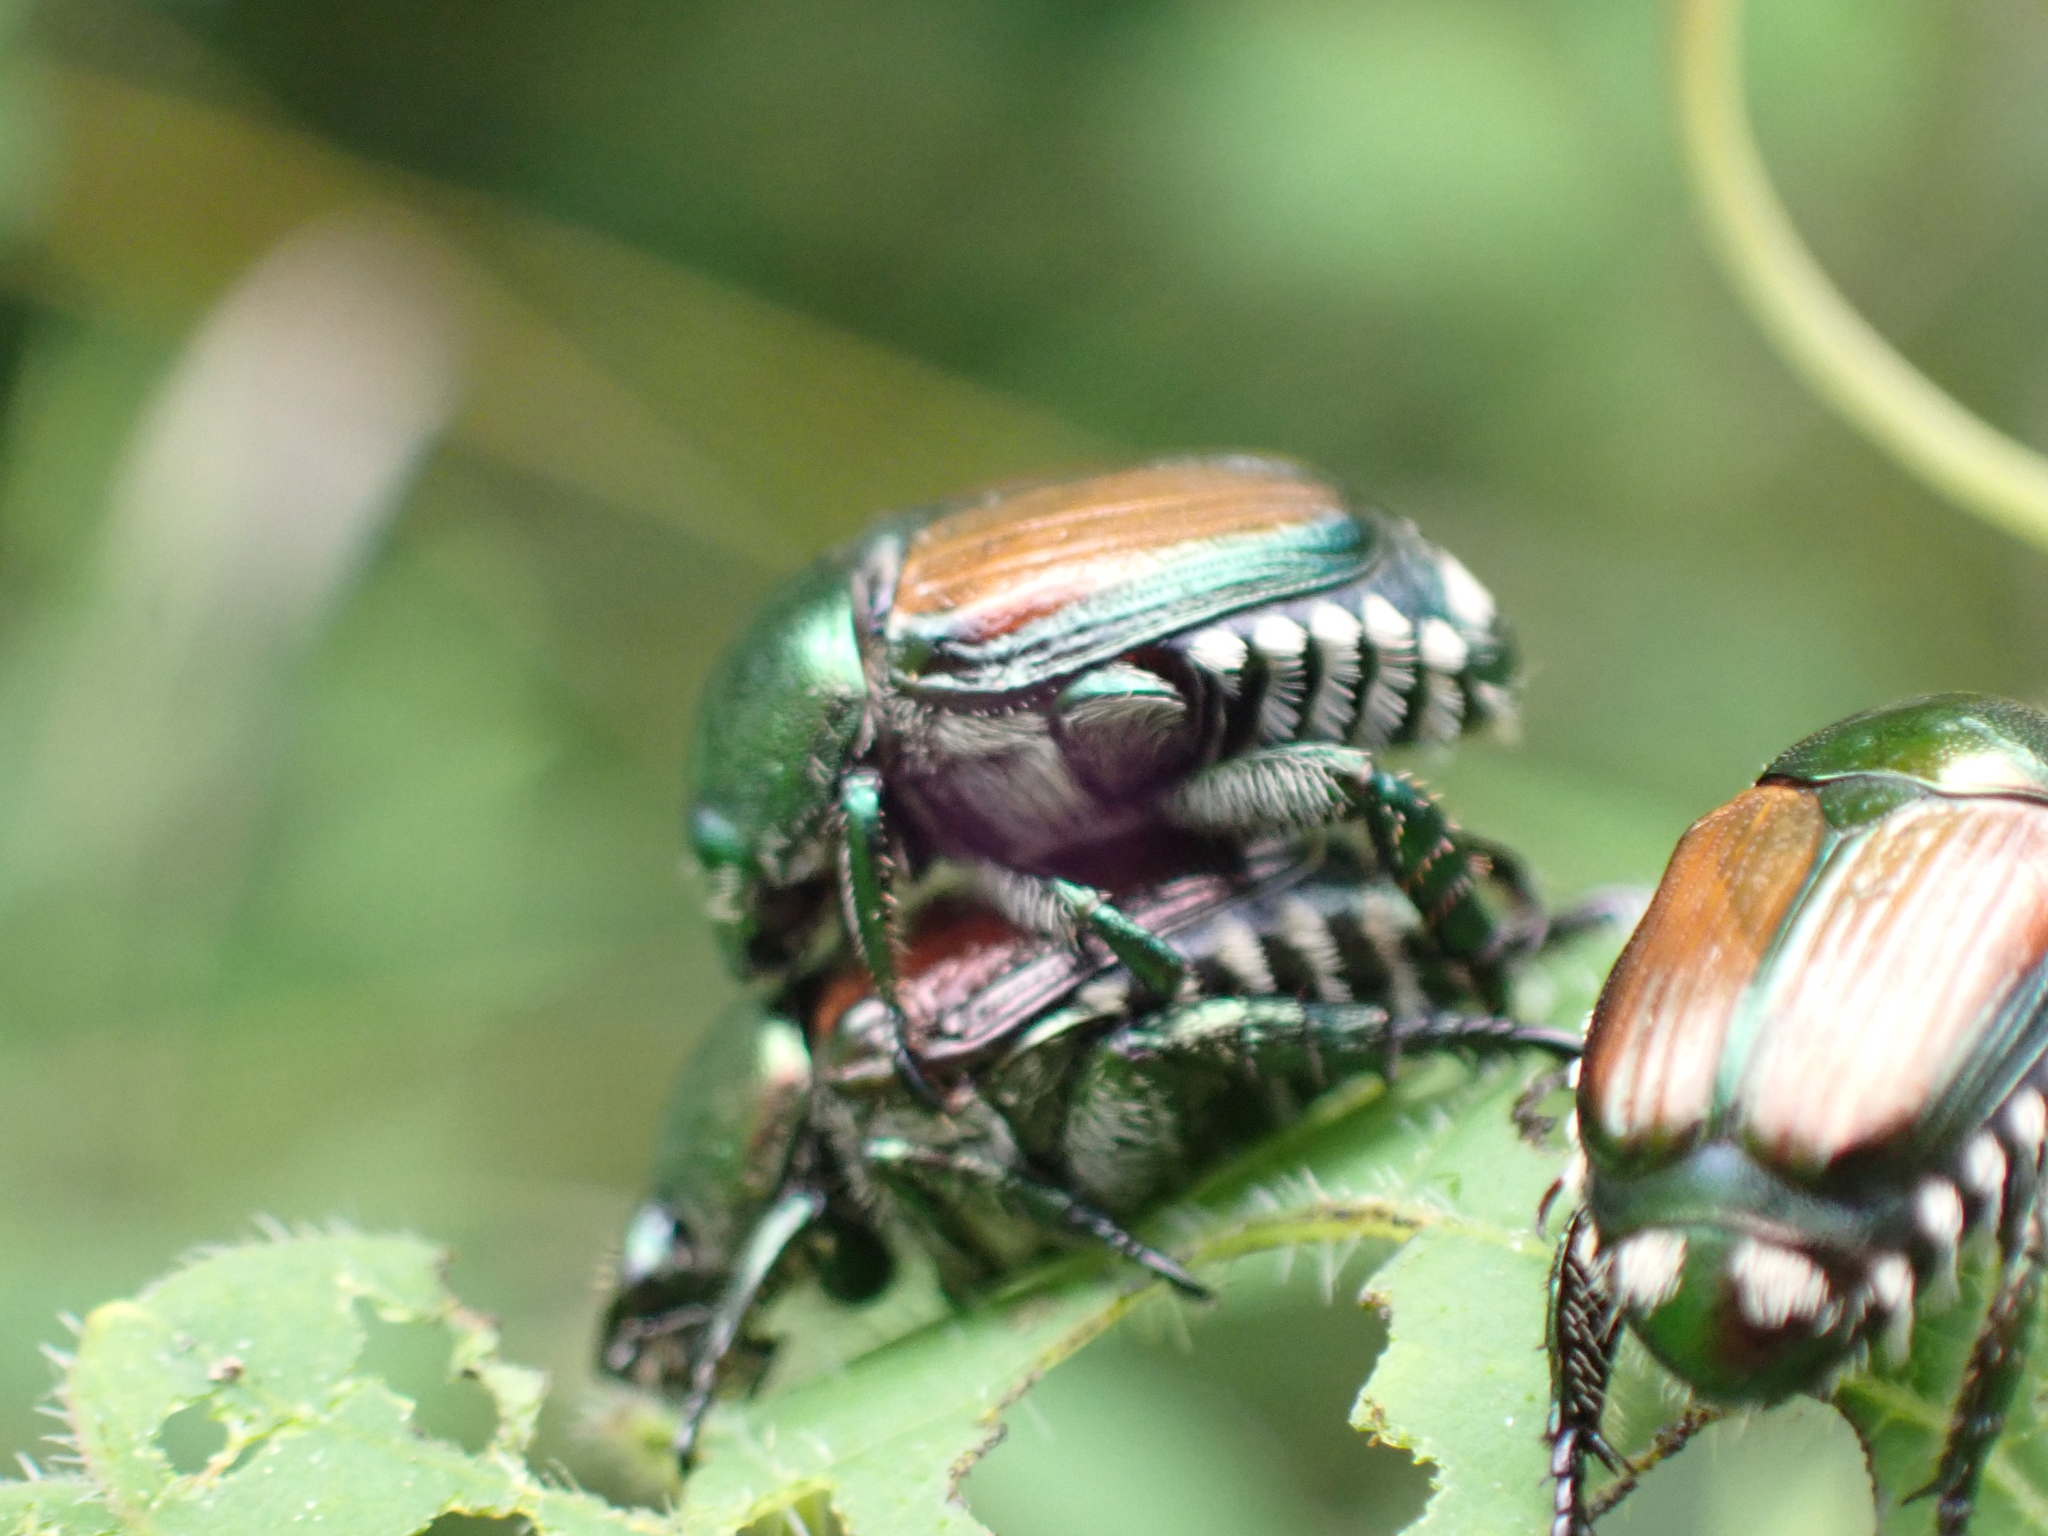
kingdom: Animalia
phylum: Arthropoda
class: Insecta
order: Coleoptera
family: Scarabaeidae
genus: Popillia
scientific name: Popillia japonica
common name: Japanese beetle
